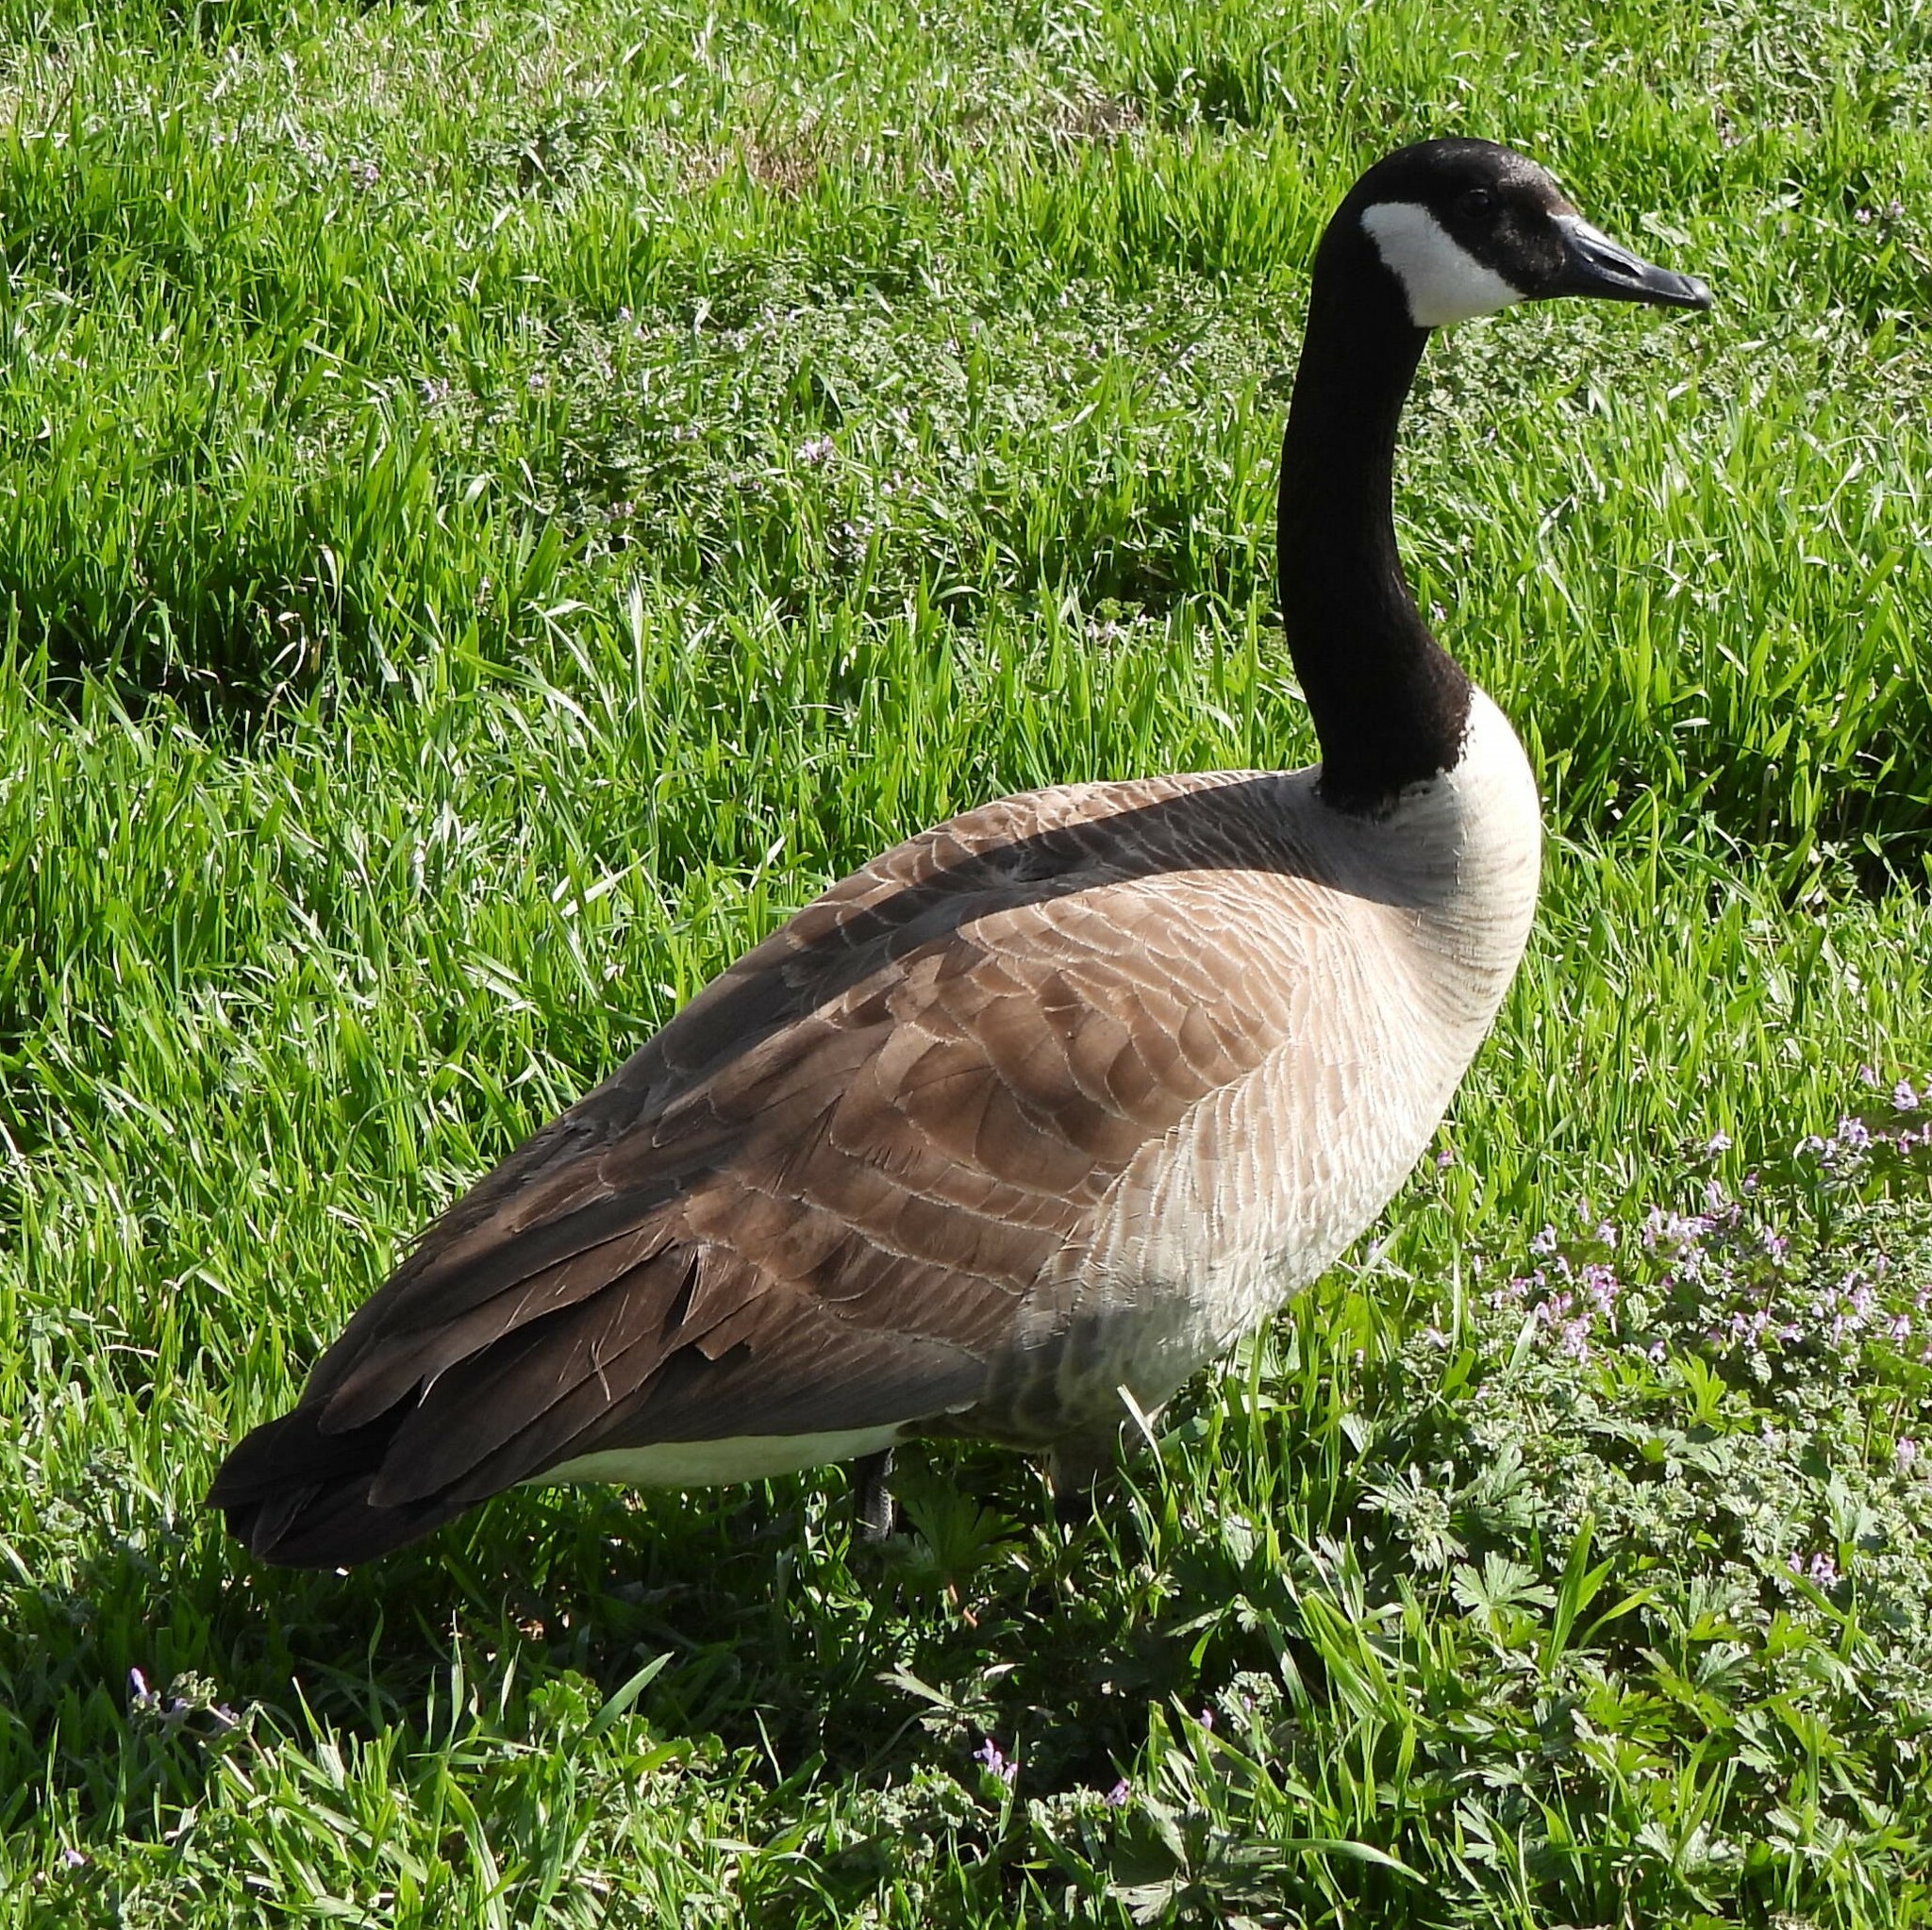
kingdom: Animalia
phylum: Chordata
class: Aves
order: Anseriformes
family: Anatidae
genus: Branta
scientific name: Branta canadensis
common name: Canada goose
